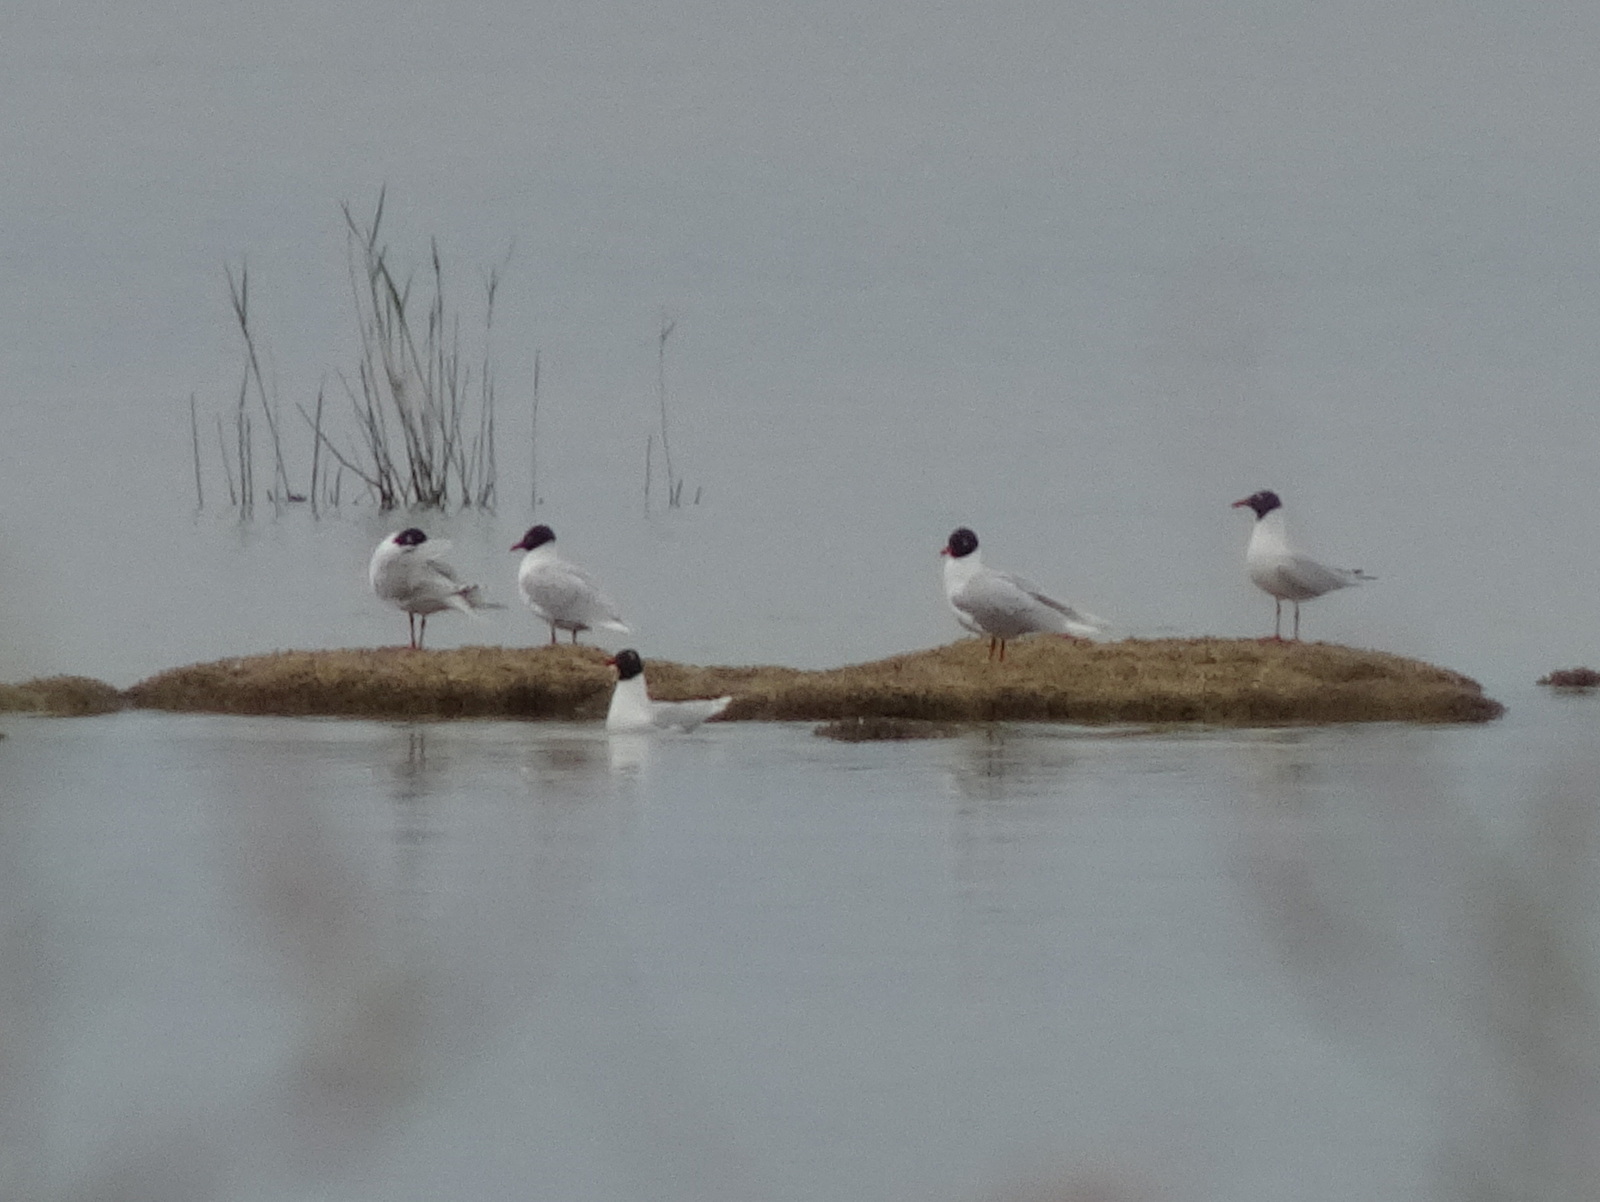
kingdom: Animalia
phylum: Chordata
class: Aves
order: Charadriiformes
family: Laridae
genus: Ichthyaetus
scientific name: Ichthyaetus melanocephalus
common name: Mediterranean gull
